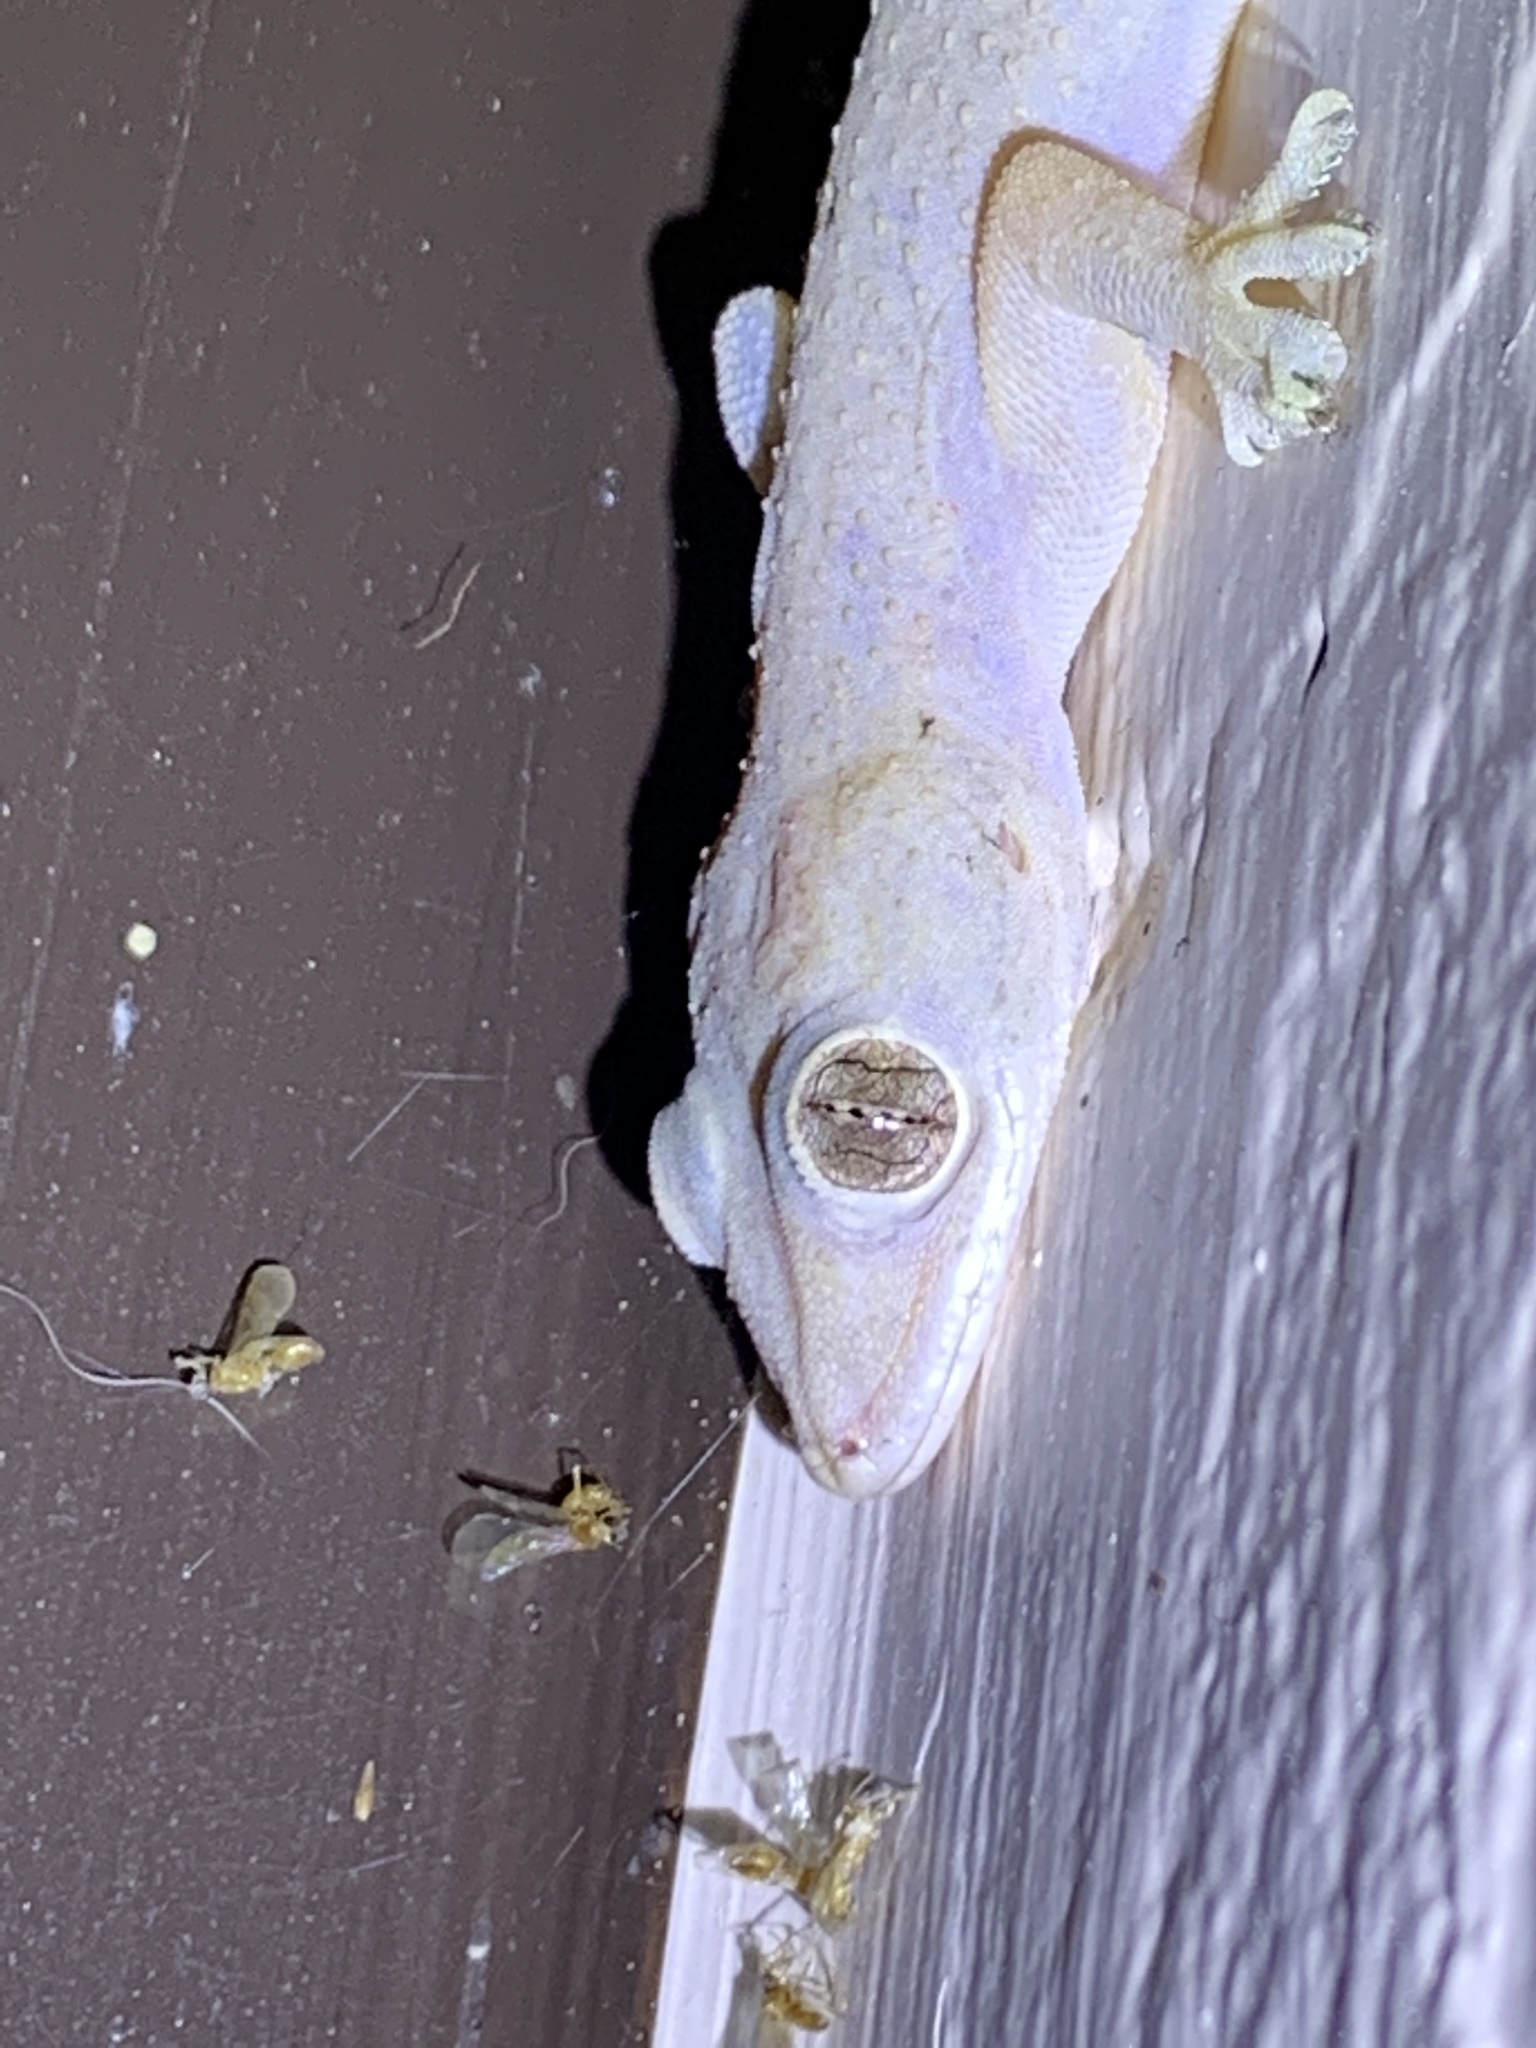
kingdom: Animalia
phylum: Chordata
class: Squamata
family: Gekkonidae
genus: Hemidactylus
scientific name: Hemidactylus mabouia
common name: House gecko
